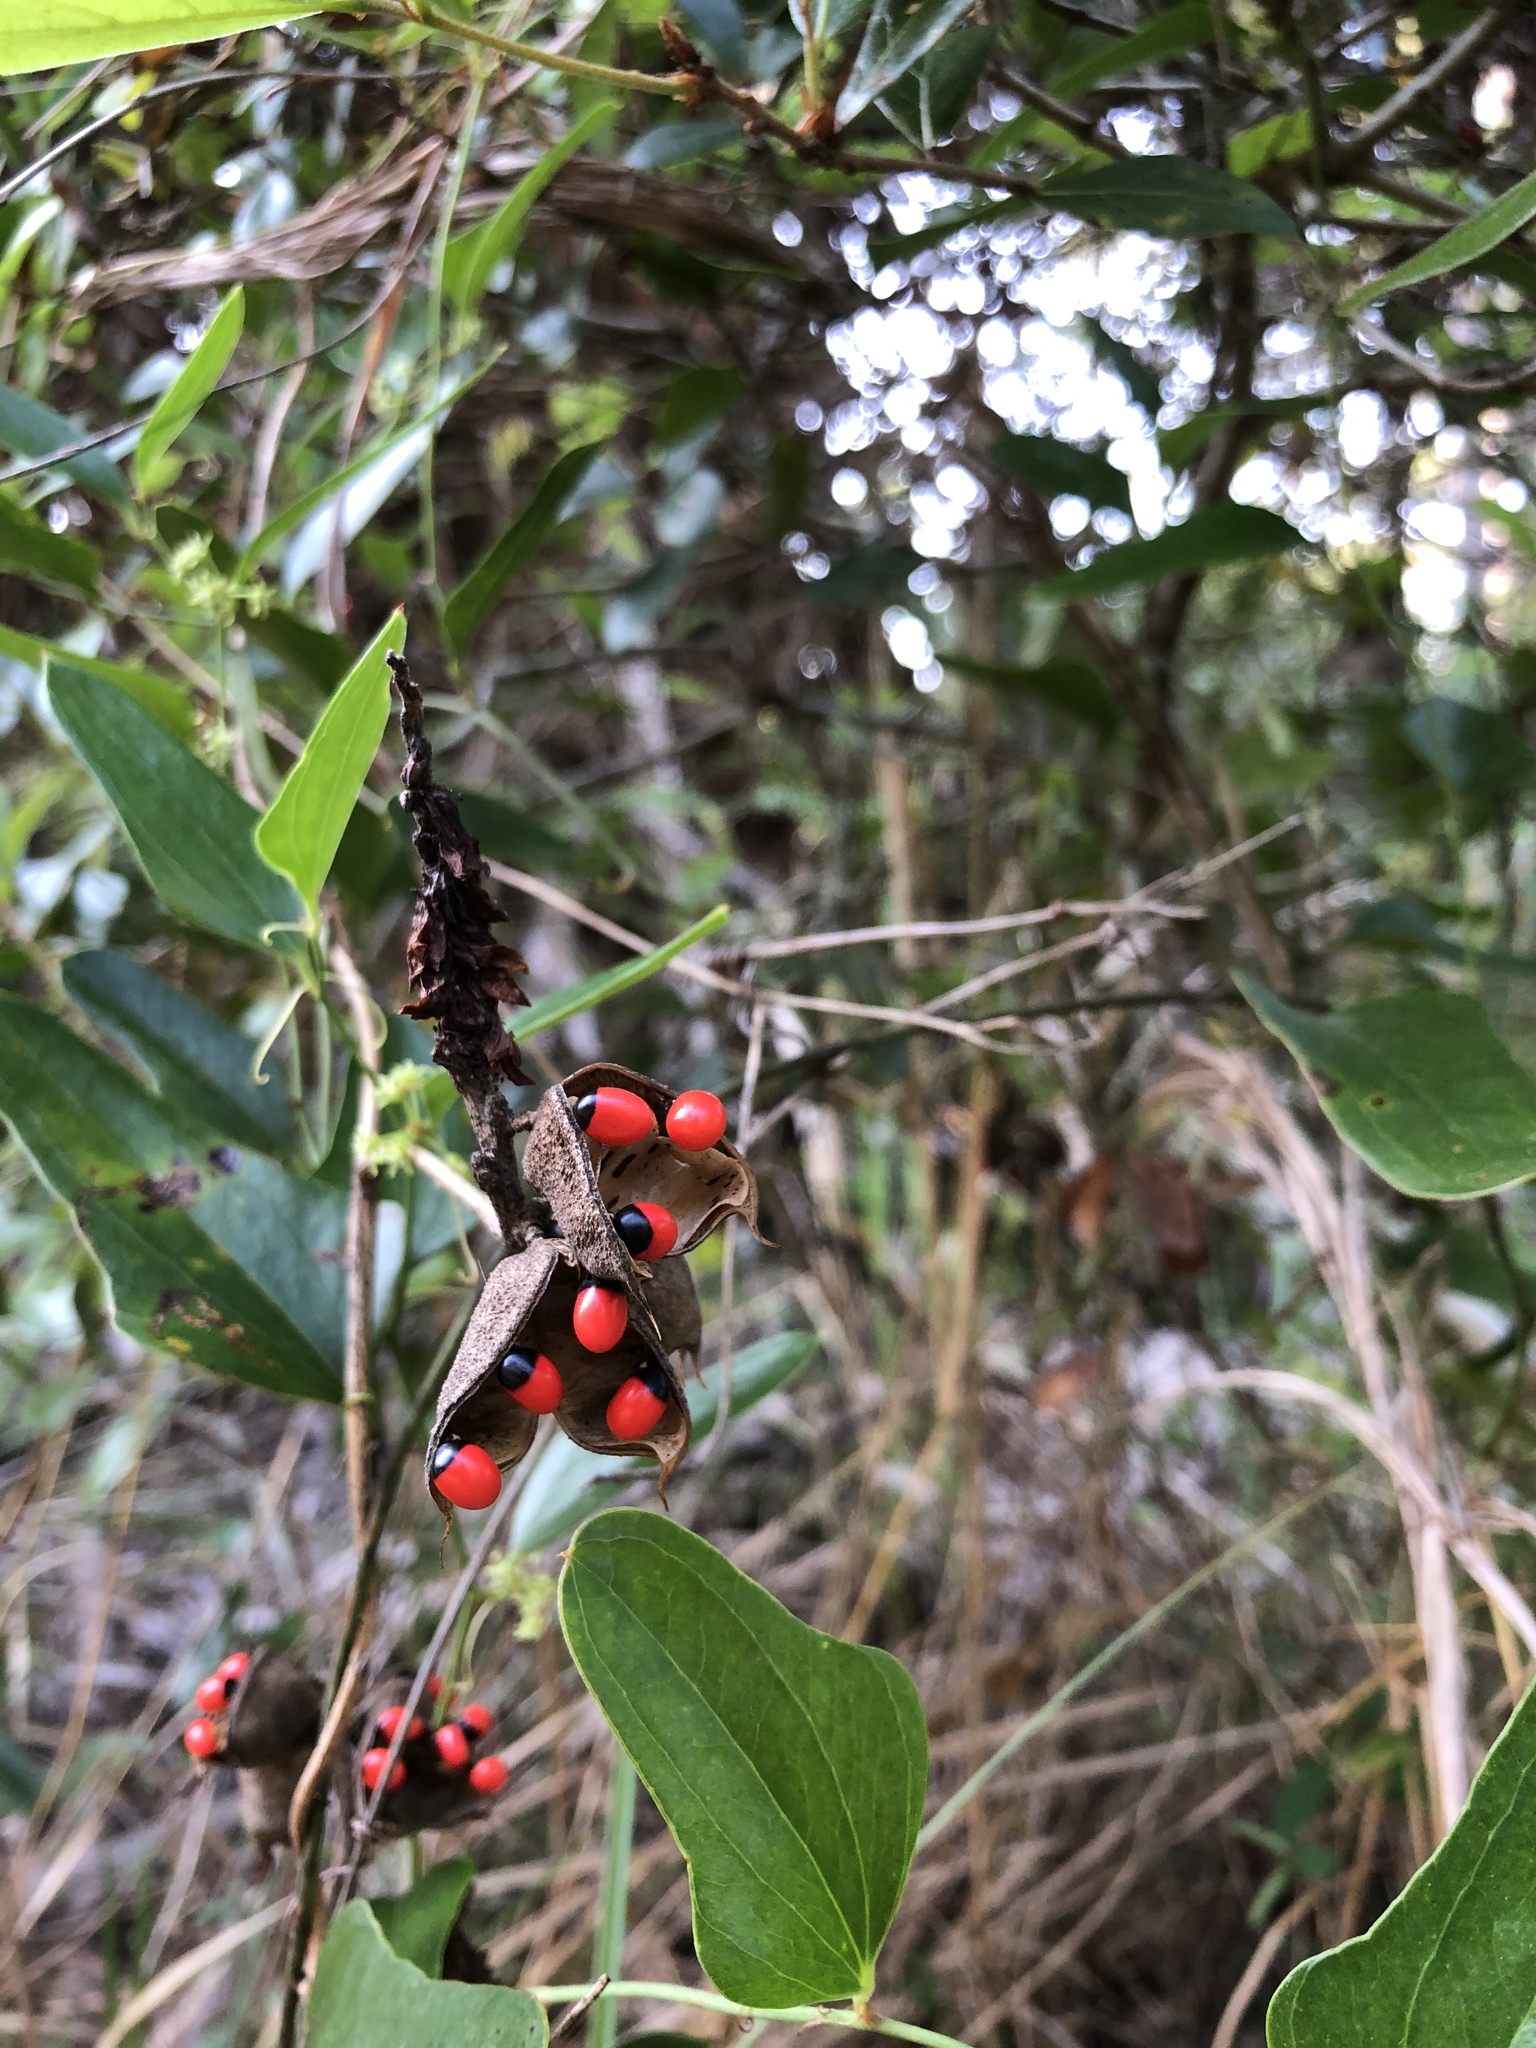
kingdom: Plantae
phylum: Tracheophyta
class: Magnoliopsida
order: Fabales
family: Fabaceae
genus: Abrus
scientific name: Abrus precatorius
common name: Rosarypea
